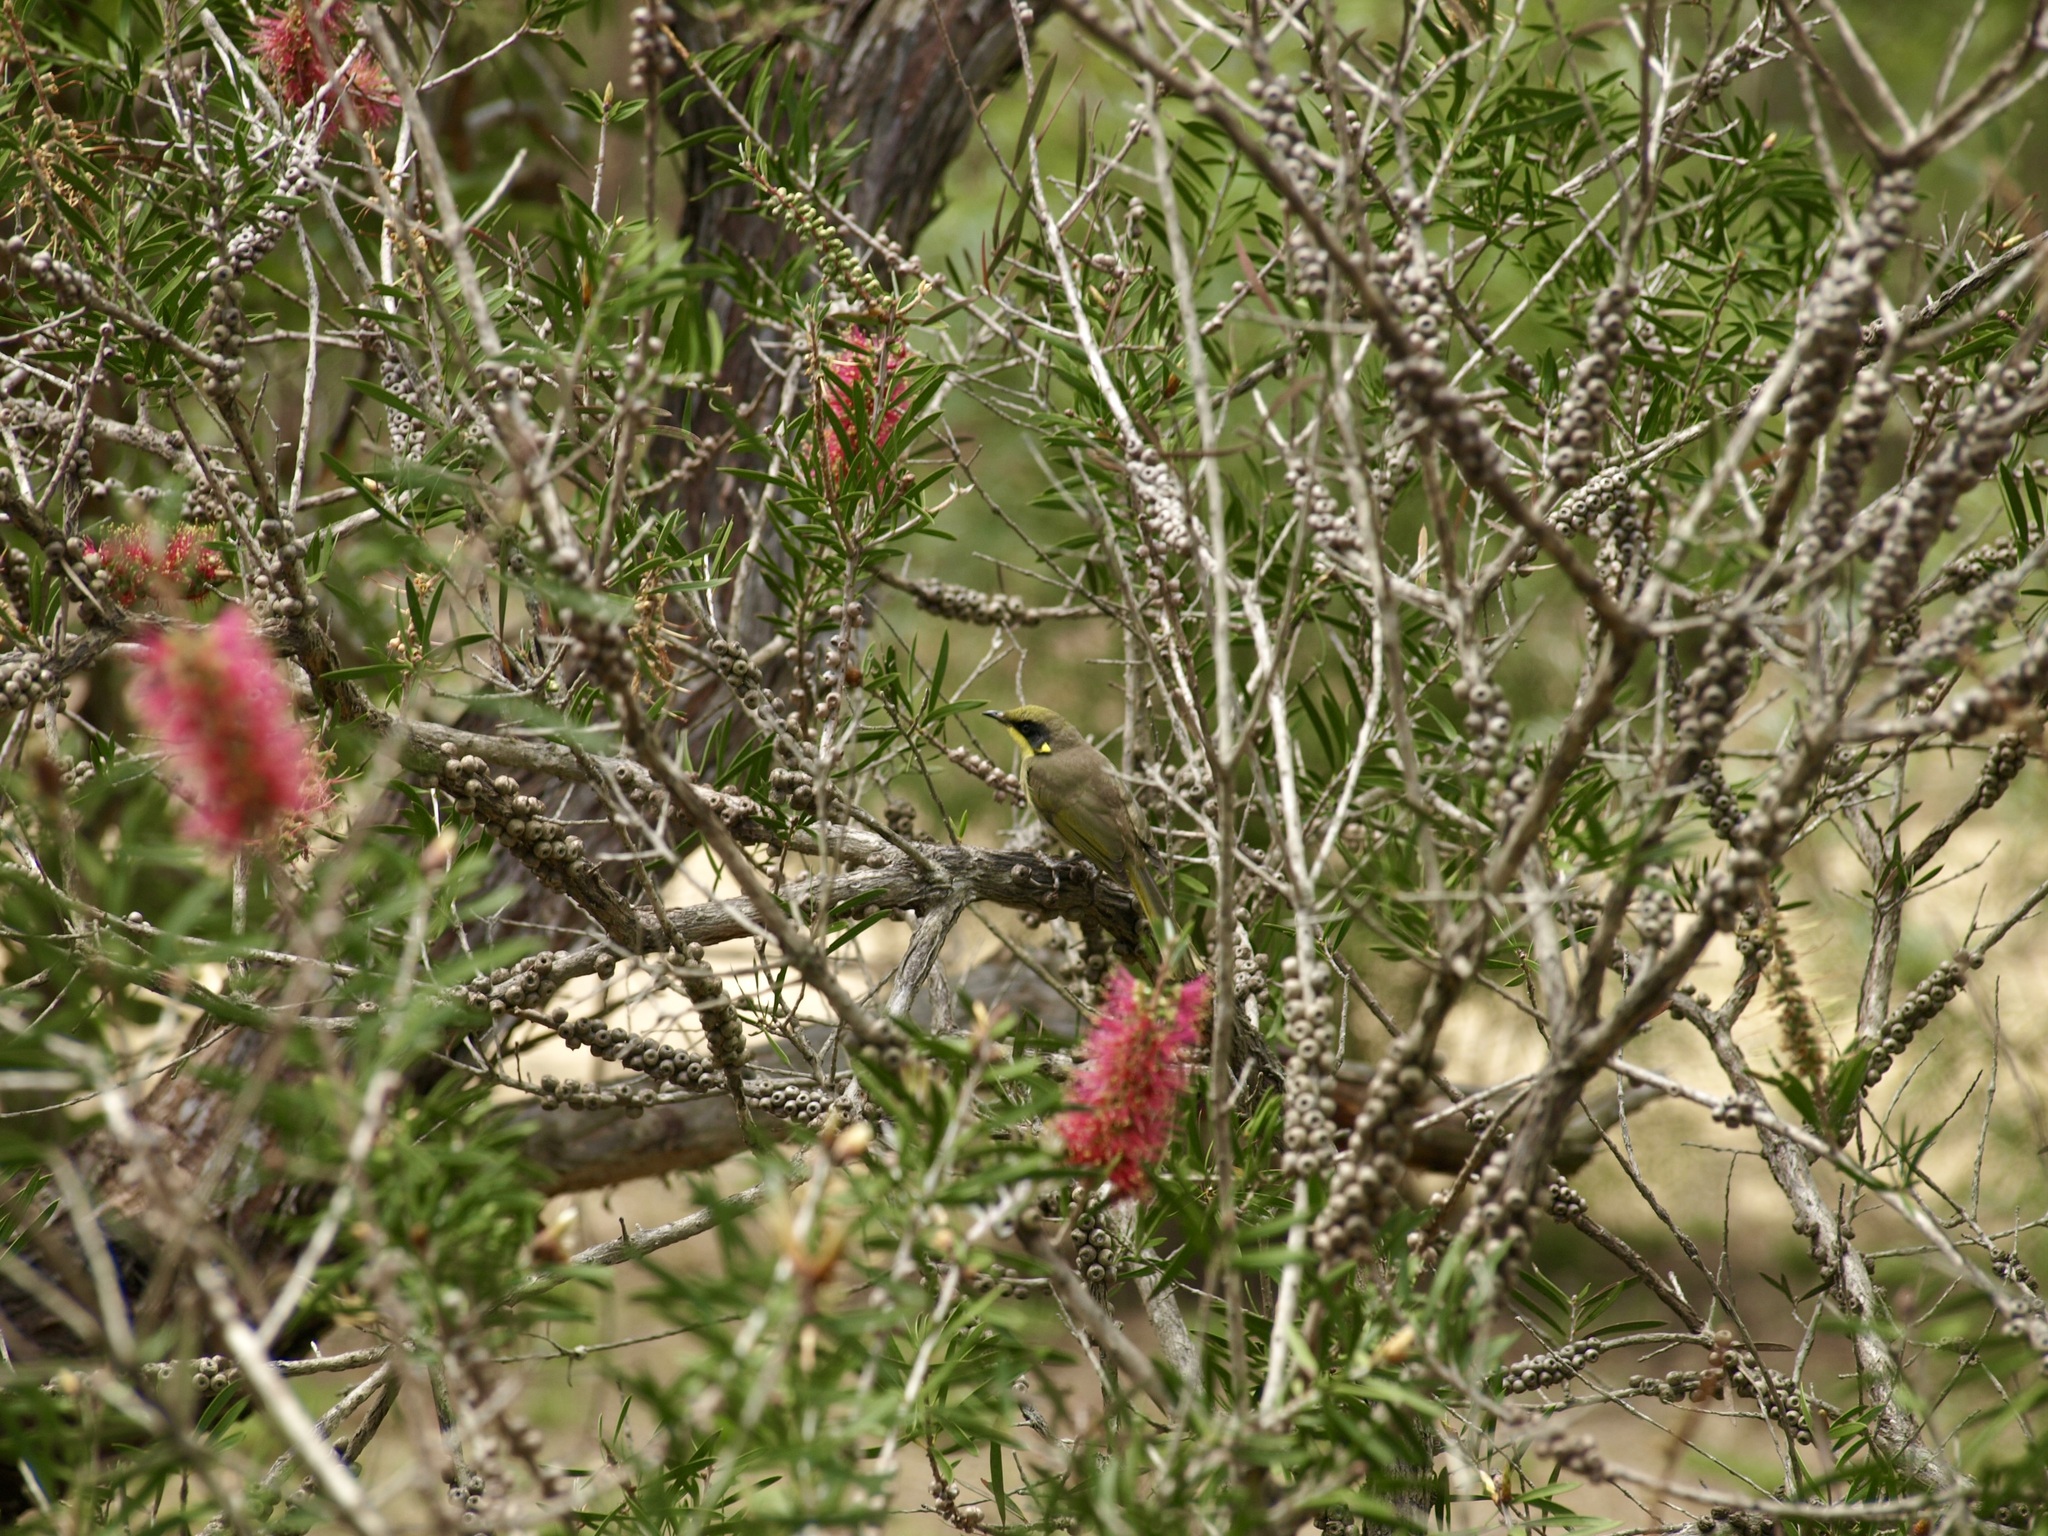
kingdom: Animalia
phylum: Chordata
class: Aves
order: Passeriformes
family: Meliphagidae
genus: Lichenostomus
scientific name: Lichenostomus melanops
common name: Yellow-tufted honeyeater
